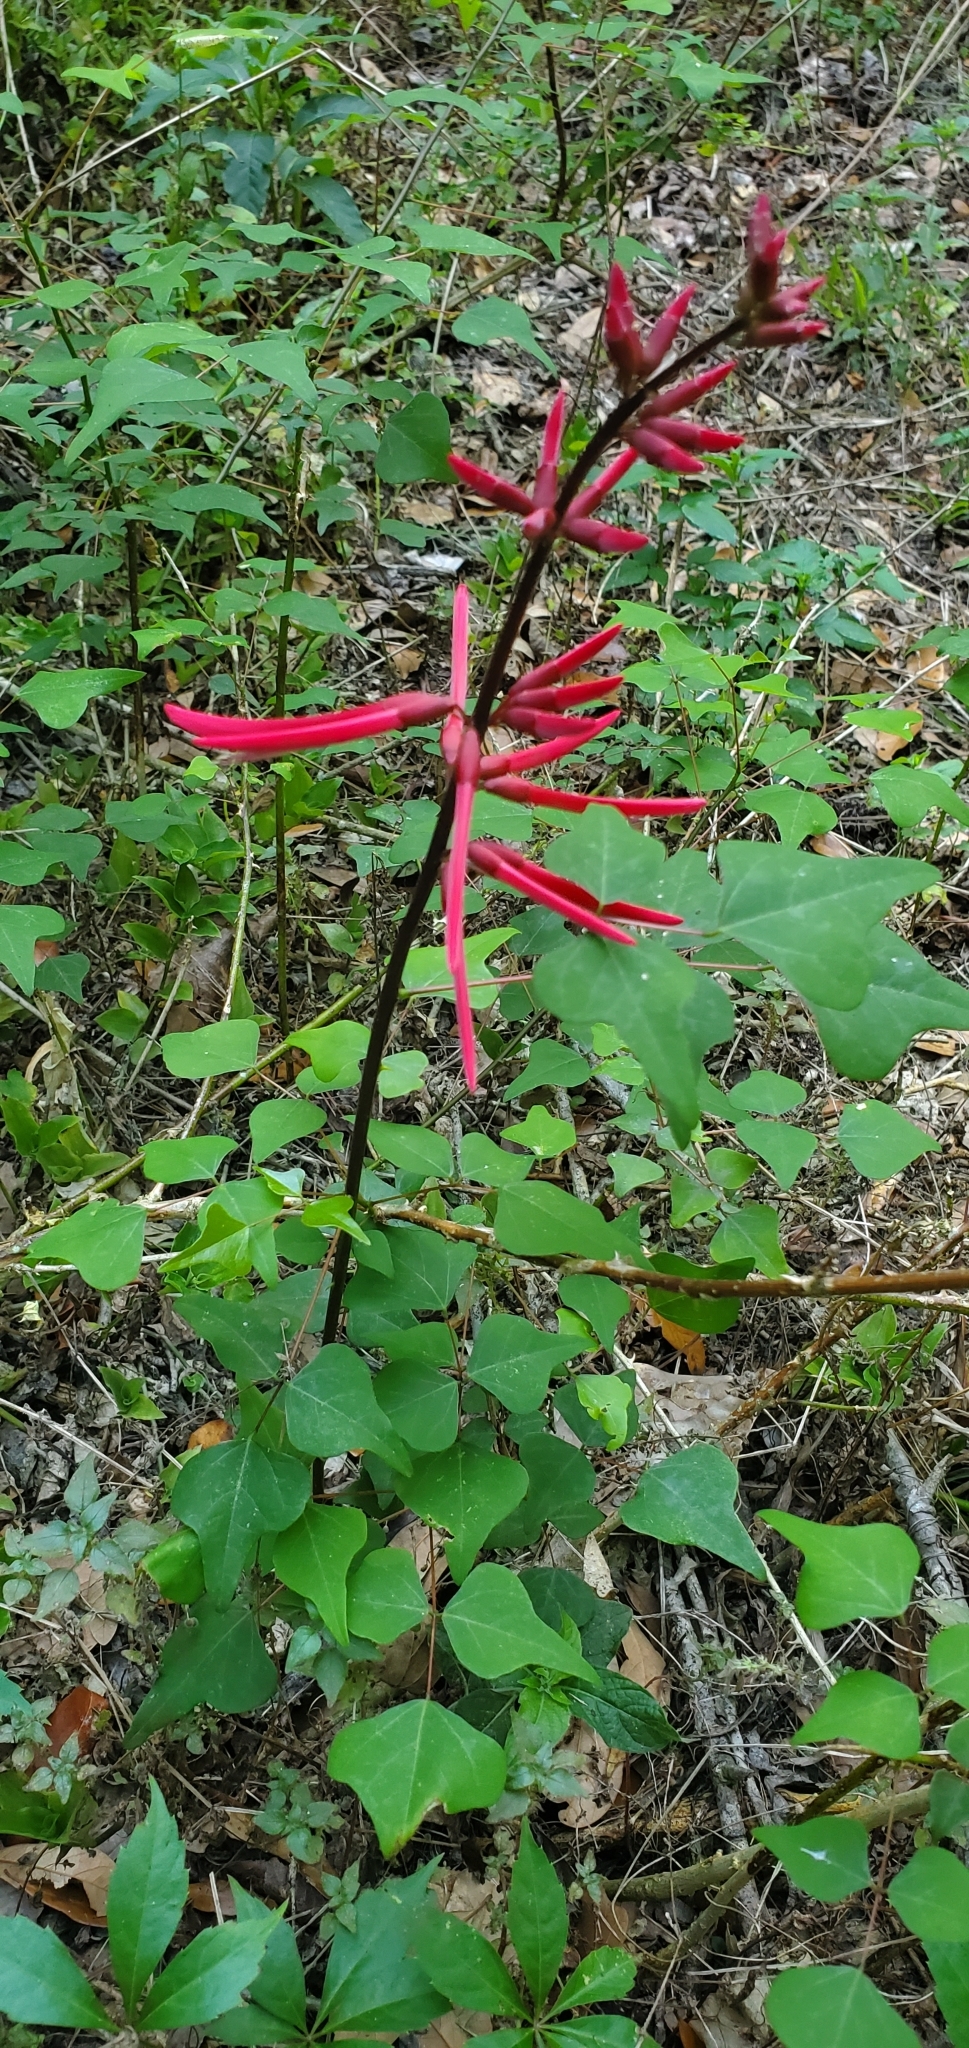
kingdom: Plantae
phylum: Tracheophyta
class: Magnoliopsida
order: Fabales
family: Fabaceae
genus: Erythrina
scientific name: Erythrina herbacea
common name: Coral-bean
